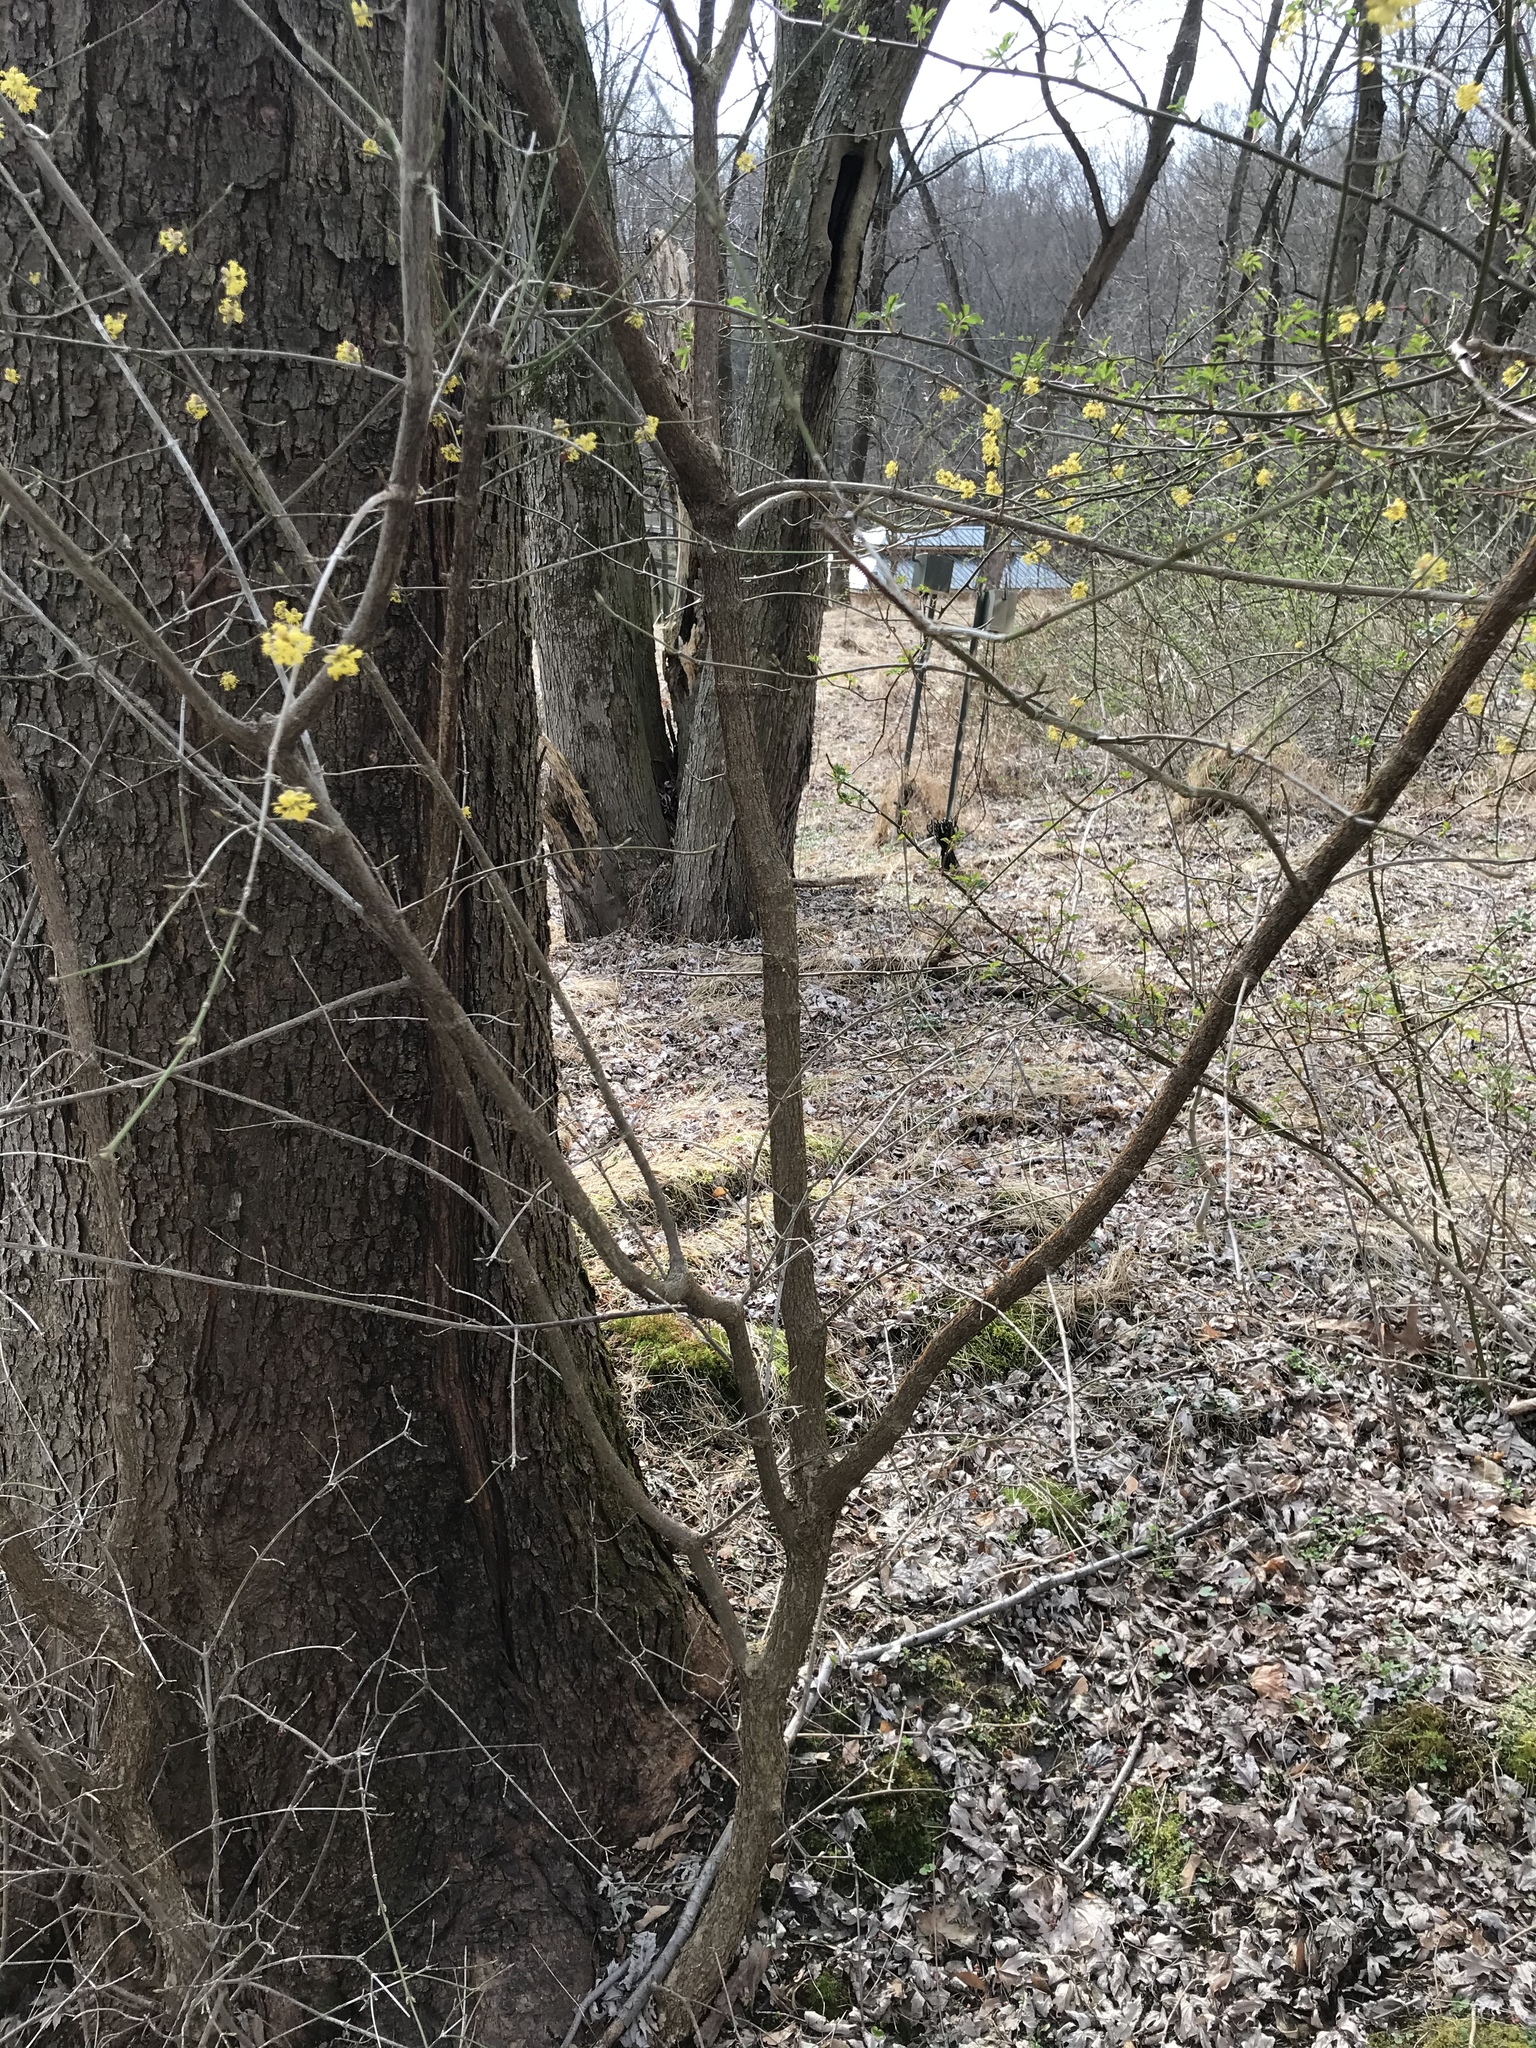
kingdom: Plantae
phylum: Tracheophyta
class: Magnoliopsida
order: Cornales
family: Cornaceae
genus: Cornus
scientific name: Cornus mas
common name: Cornelian-cherry
